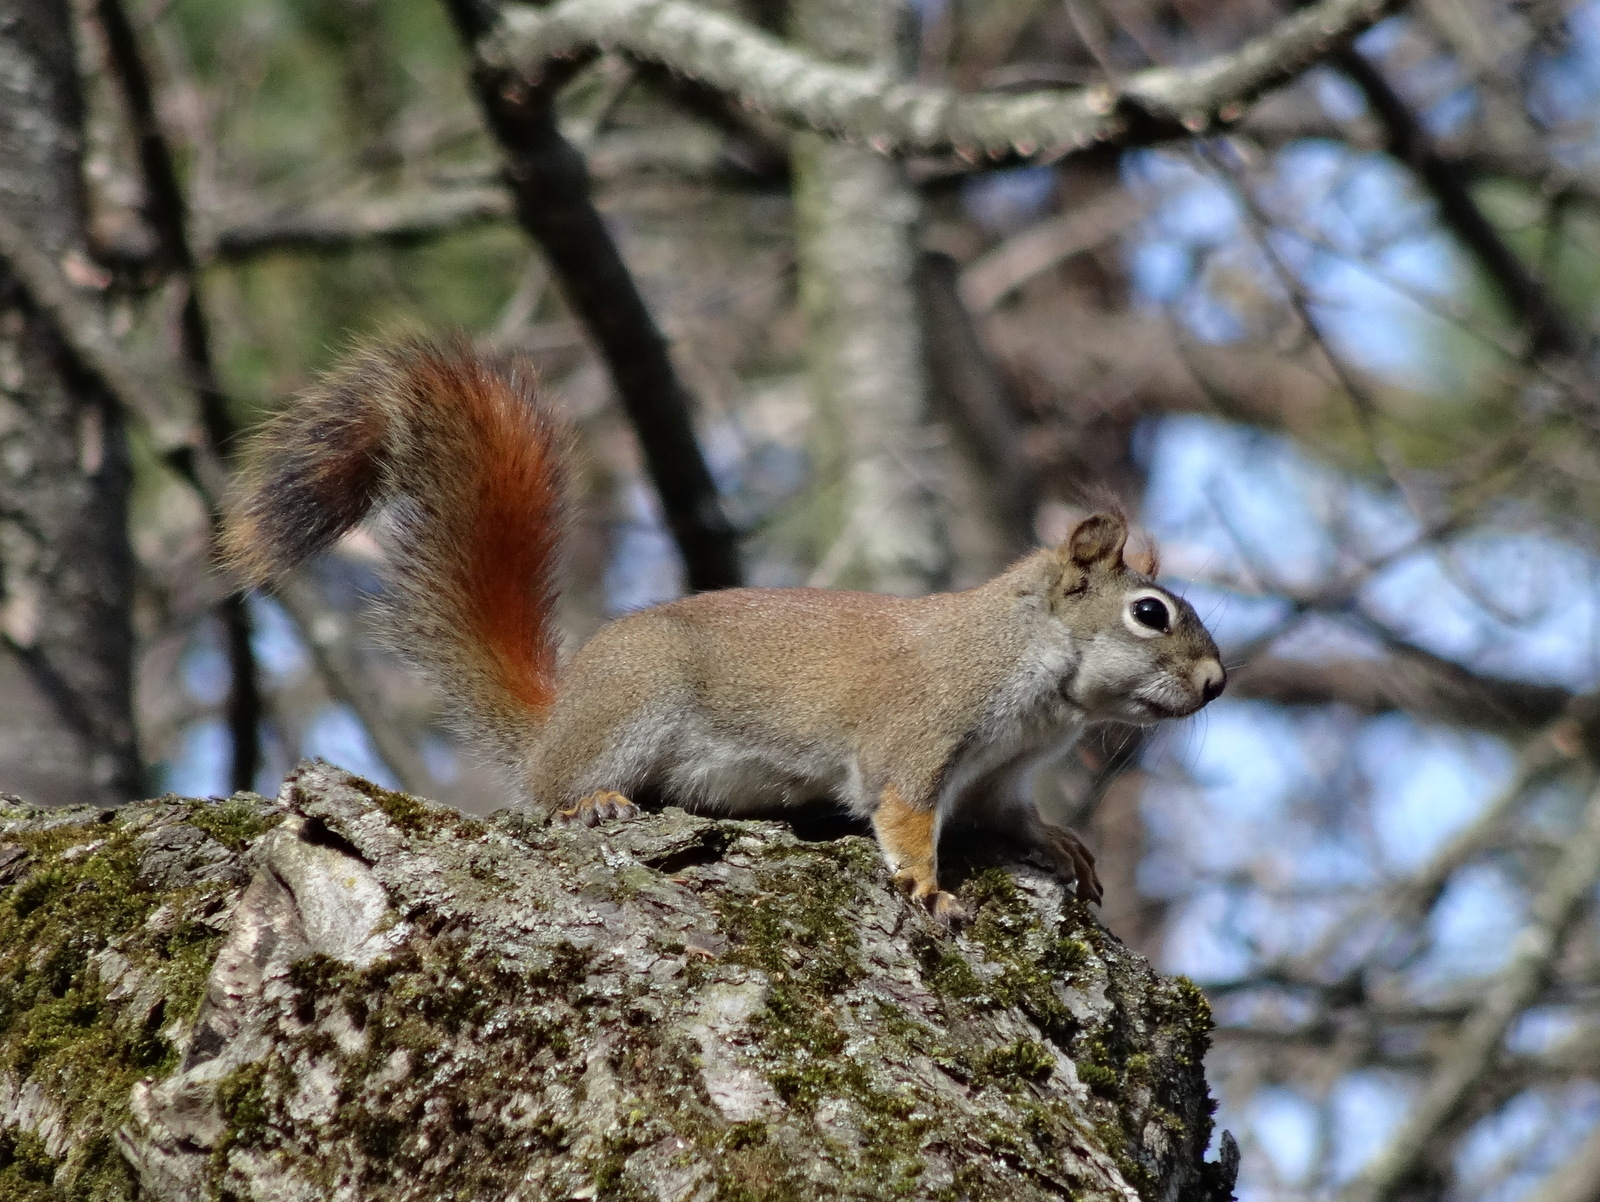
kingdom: Animalia
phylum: Chordata
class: Mammalia
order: Rodentia
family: Sciuridae
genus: Tamiasciurus
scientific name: Tamiasciurus hudsonicus
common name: Red squirrel
